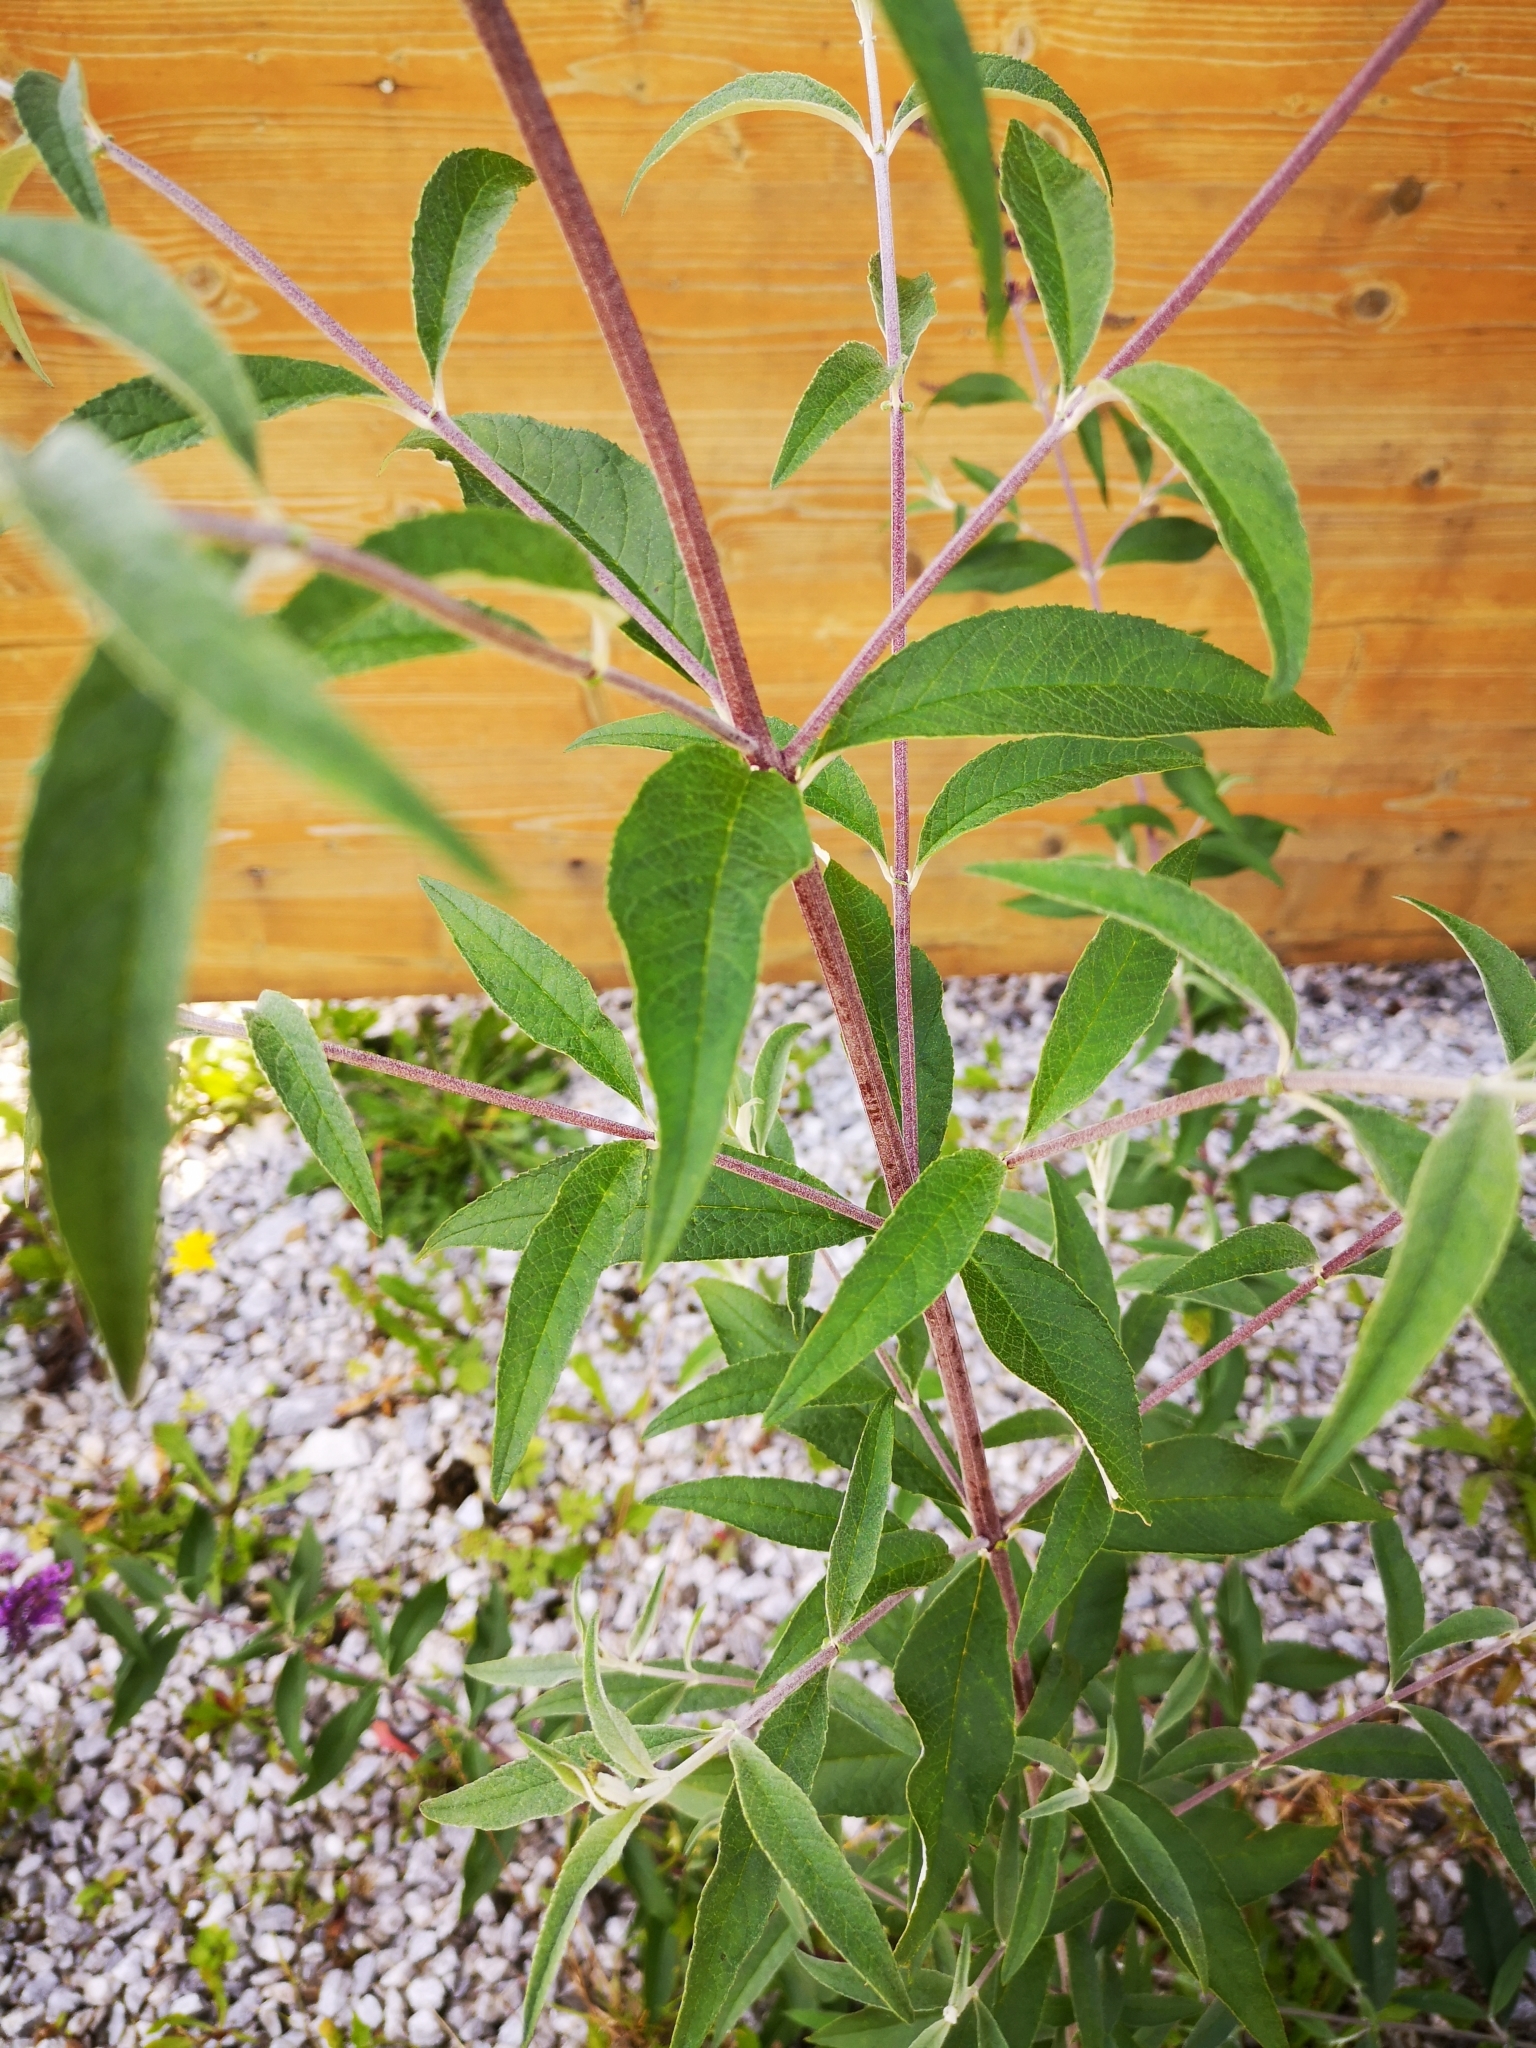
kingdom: Plantae
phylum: Tracheophyta
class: Magnoliopsida
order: Lamiales
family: Scrophulariaceae
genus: Buddleja
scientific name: Buddleja davidii
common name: Butterfly-bush
